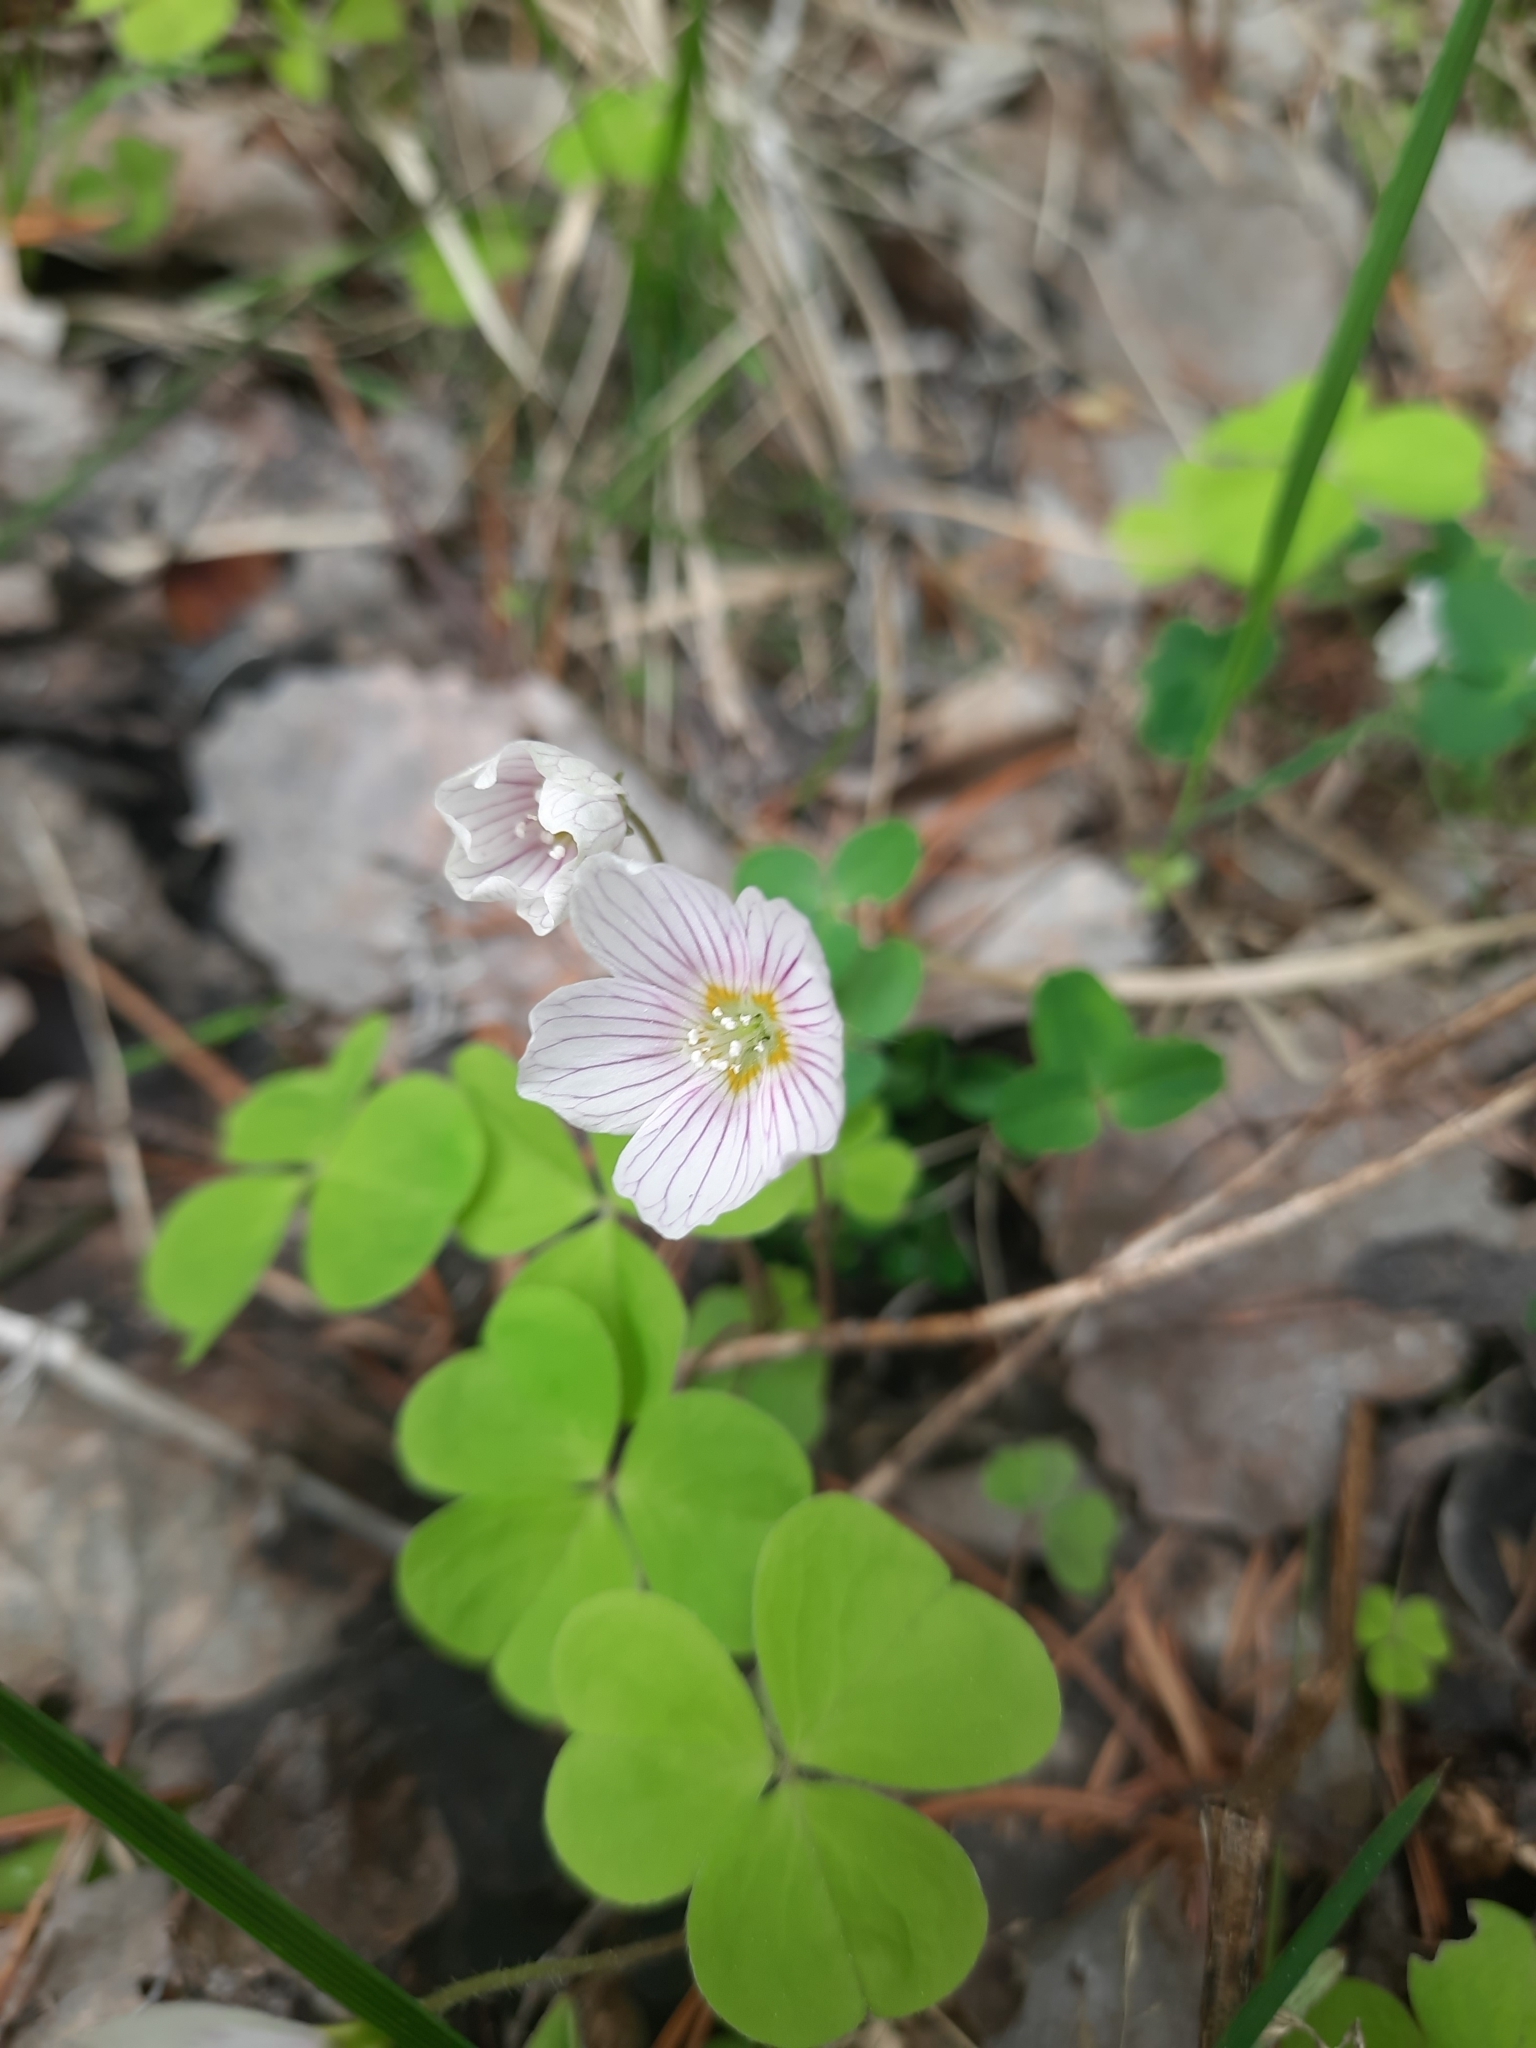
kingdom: Plantae
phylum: Tracheophyta
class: Magnoliopsida
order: Oxalidales
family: Oxalidaceae
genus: Oxalis
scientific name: Oxalis acetosella
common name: Wood-sorrel
